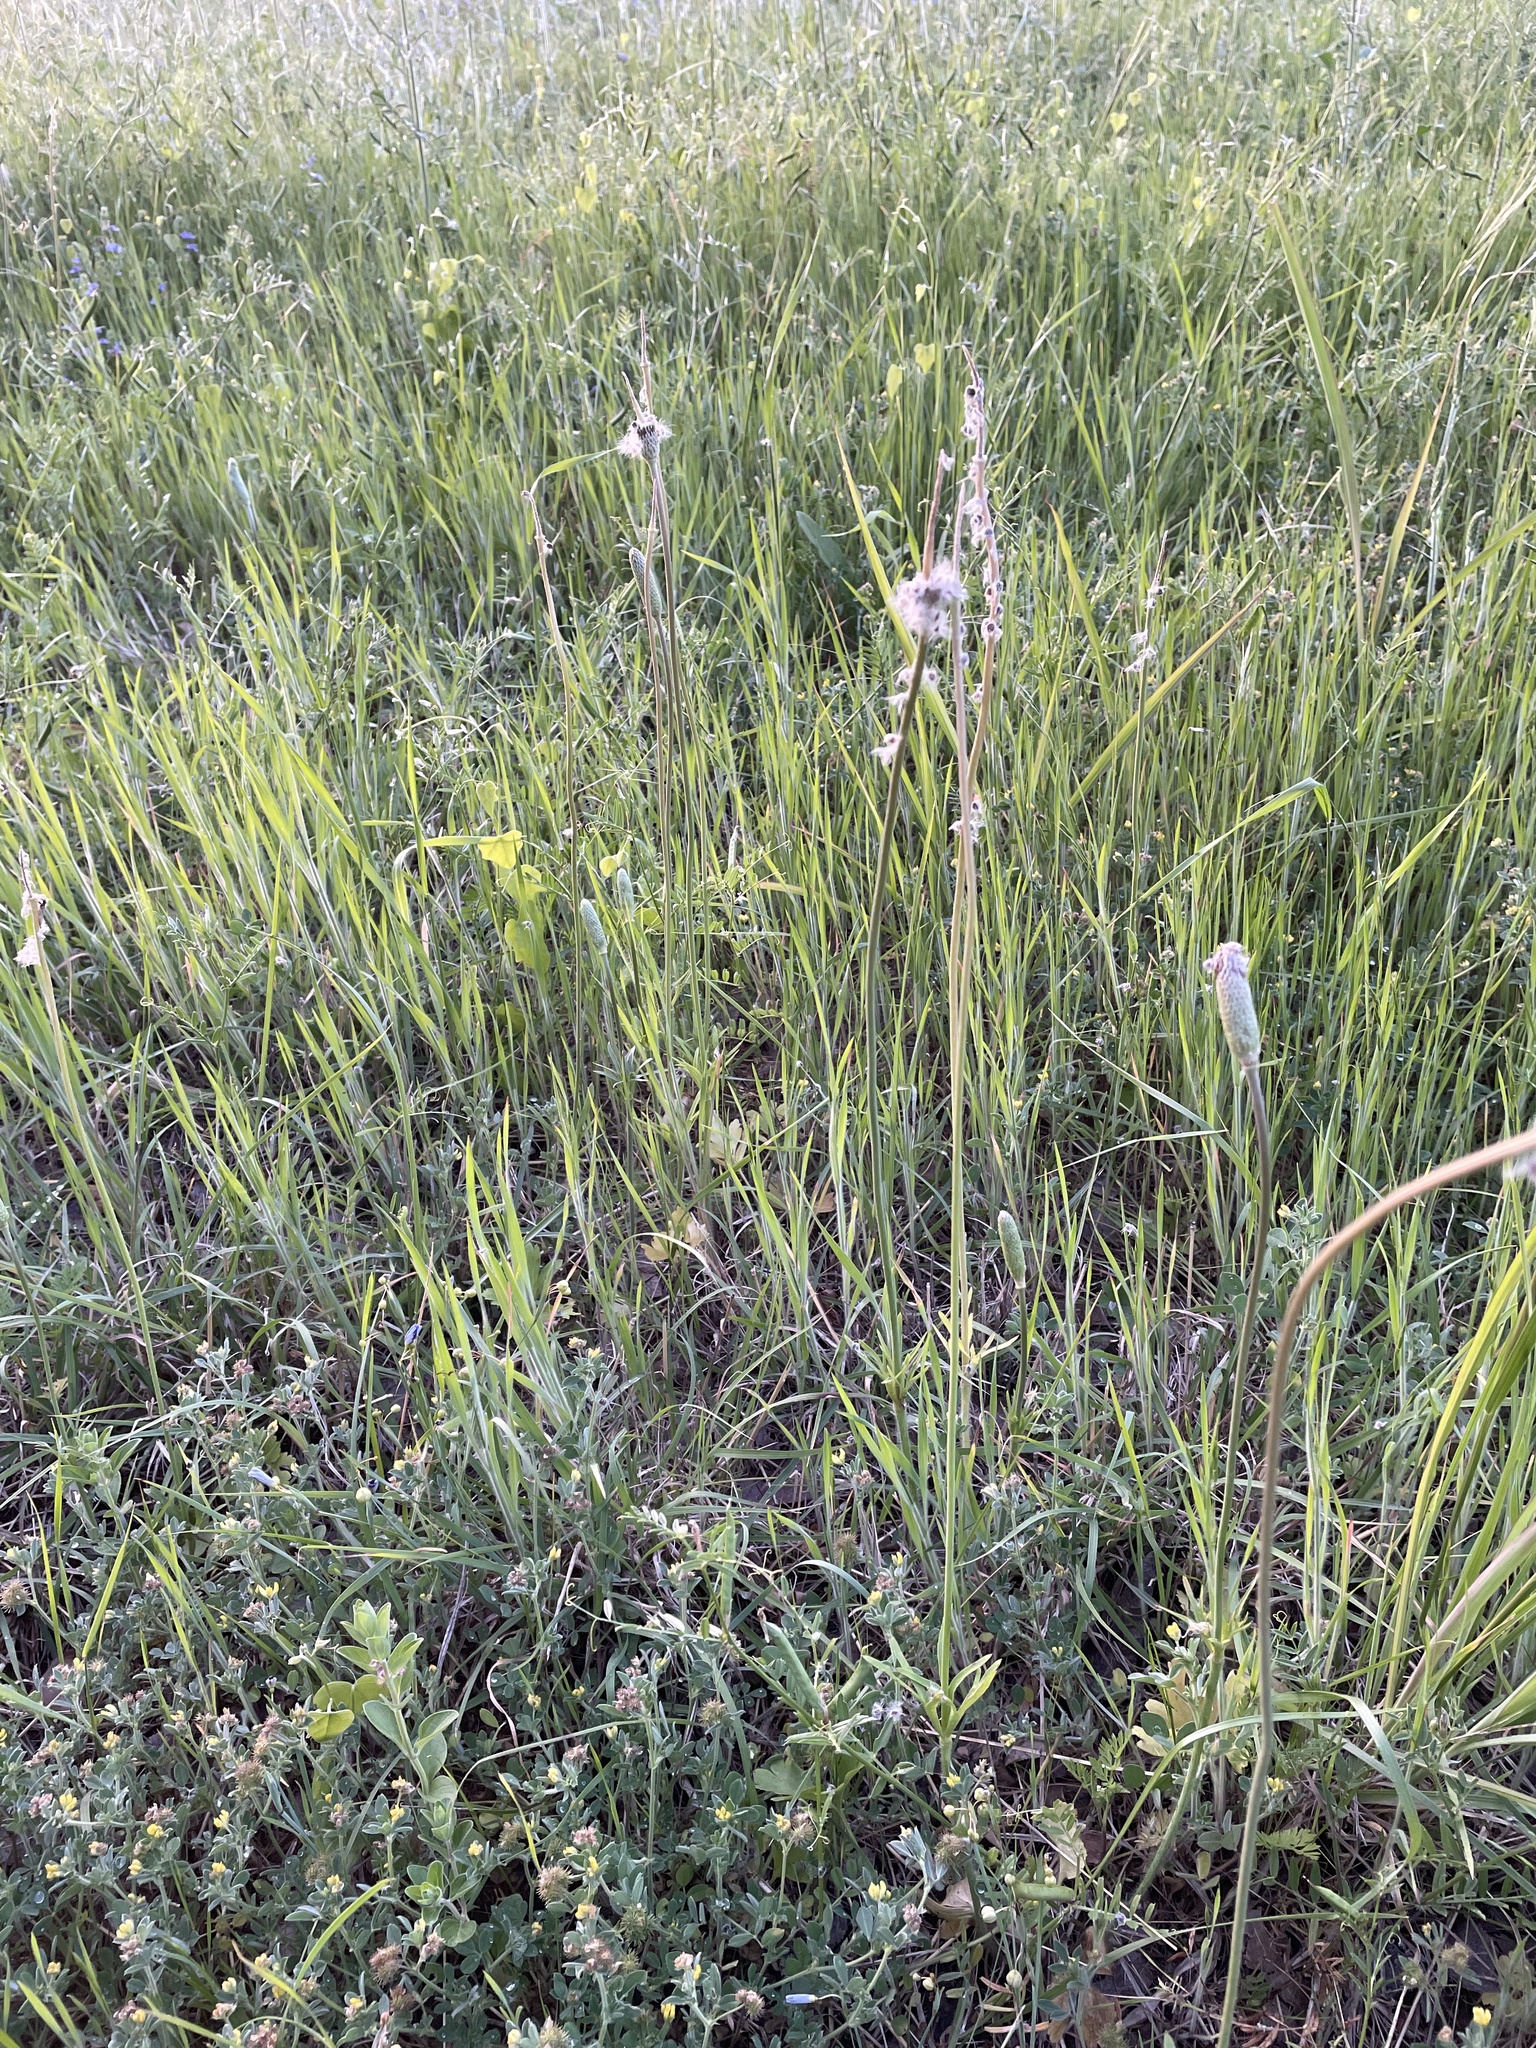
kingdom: Plantae
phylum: Tracheophyta
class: Magnoliopsida
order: Ranunculales
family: Ranunculaceae
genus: Anemone
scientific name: Anemone berlandieri
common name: Ten-petal anemone
